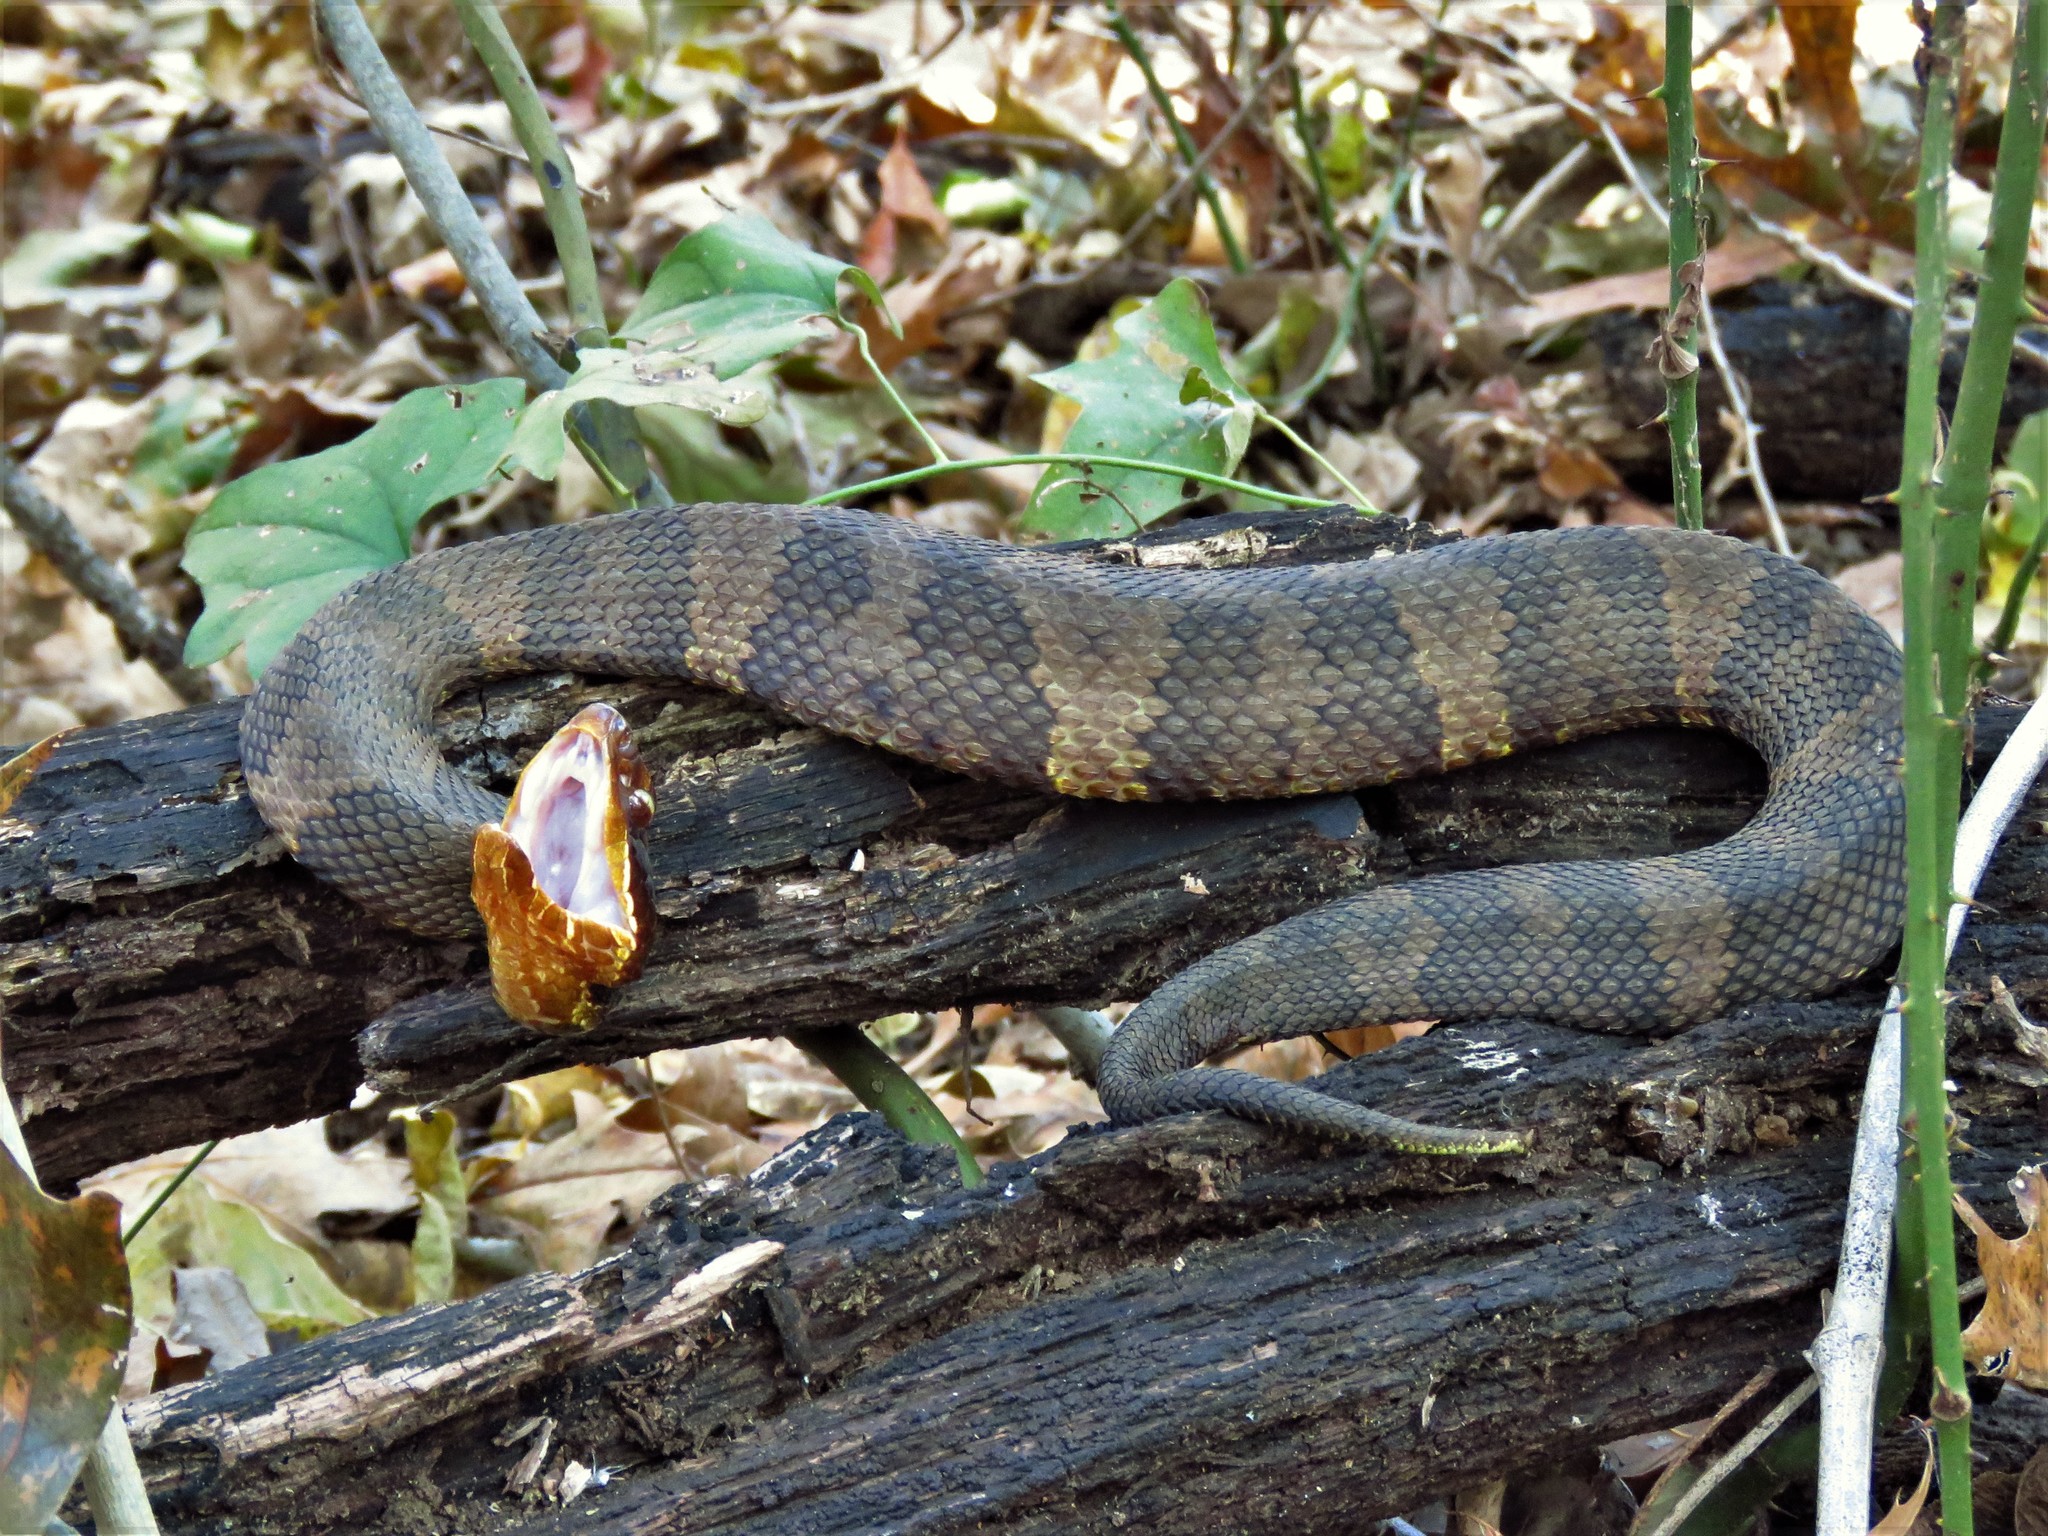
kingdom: Animalia
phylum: Chordata
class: Squamata
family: Viperidae
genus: Agkistrodon
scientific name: Agkistrodon piscivorus
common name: Cottonmouth
